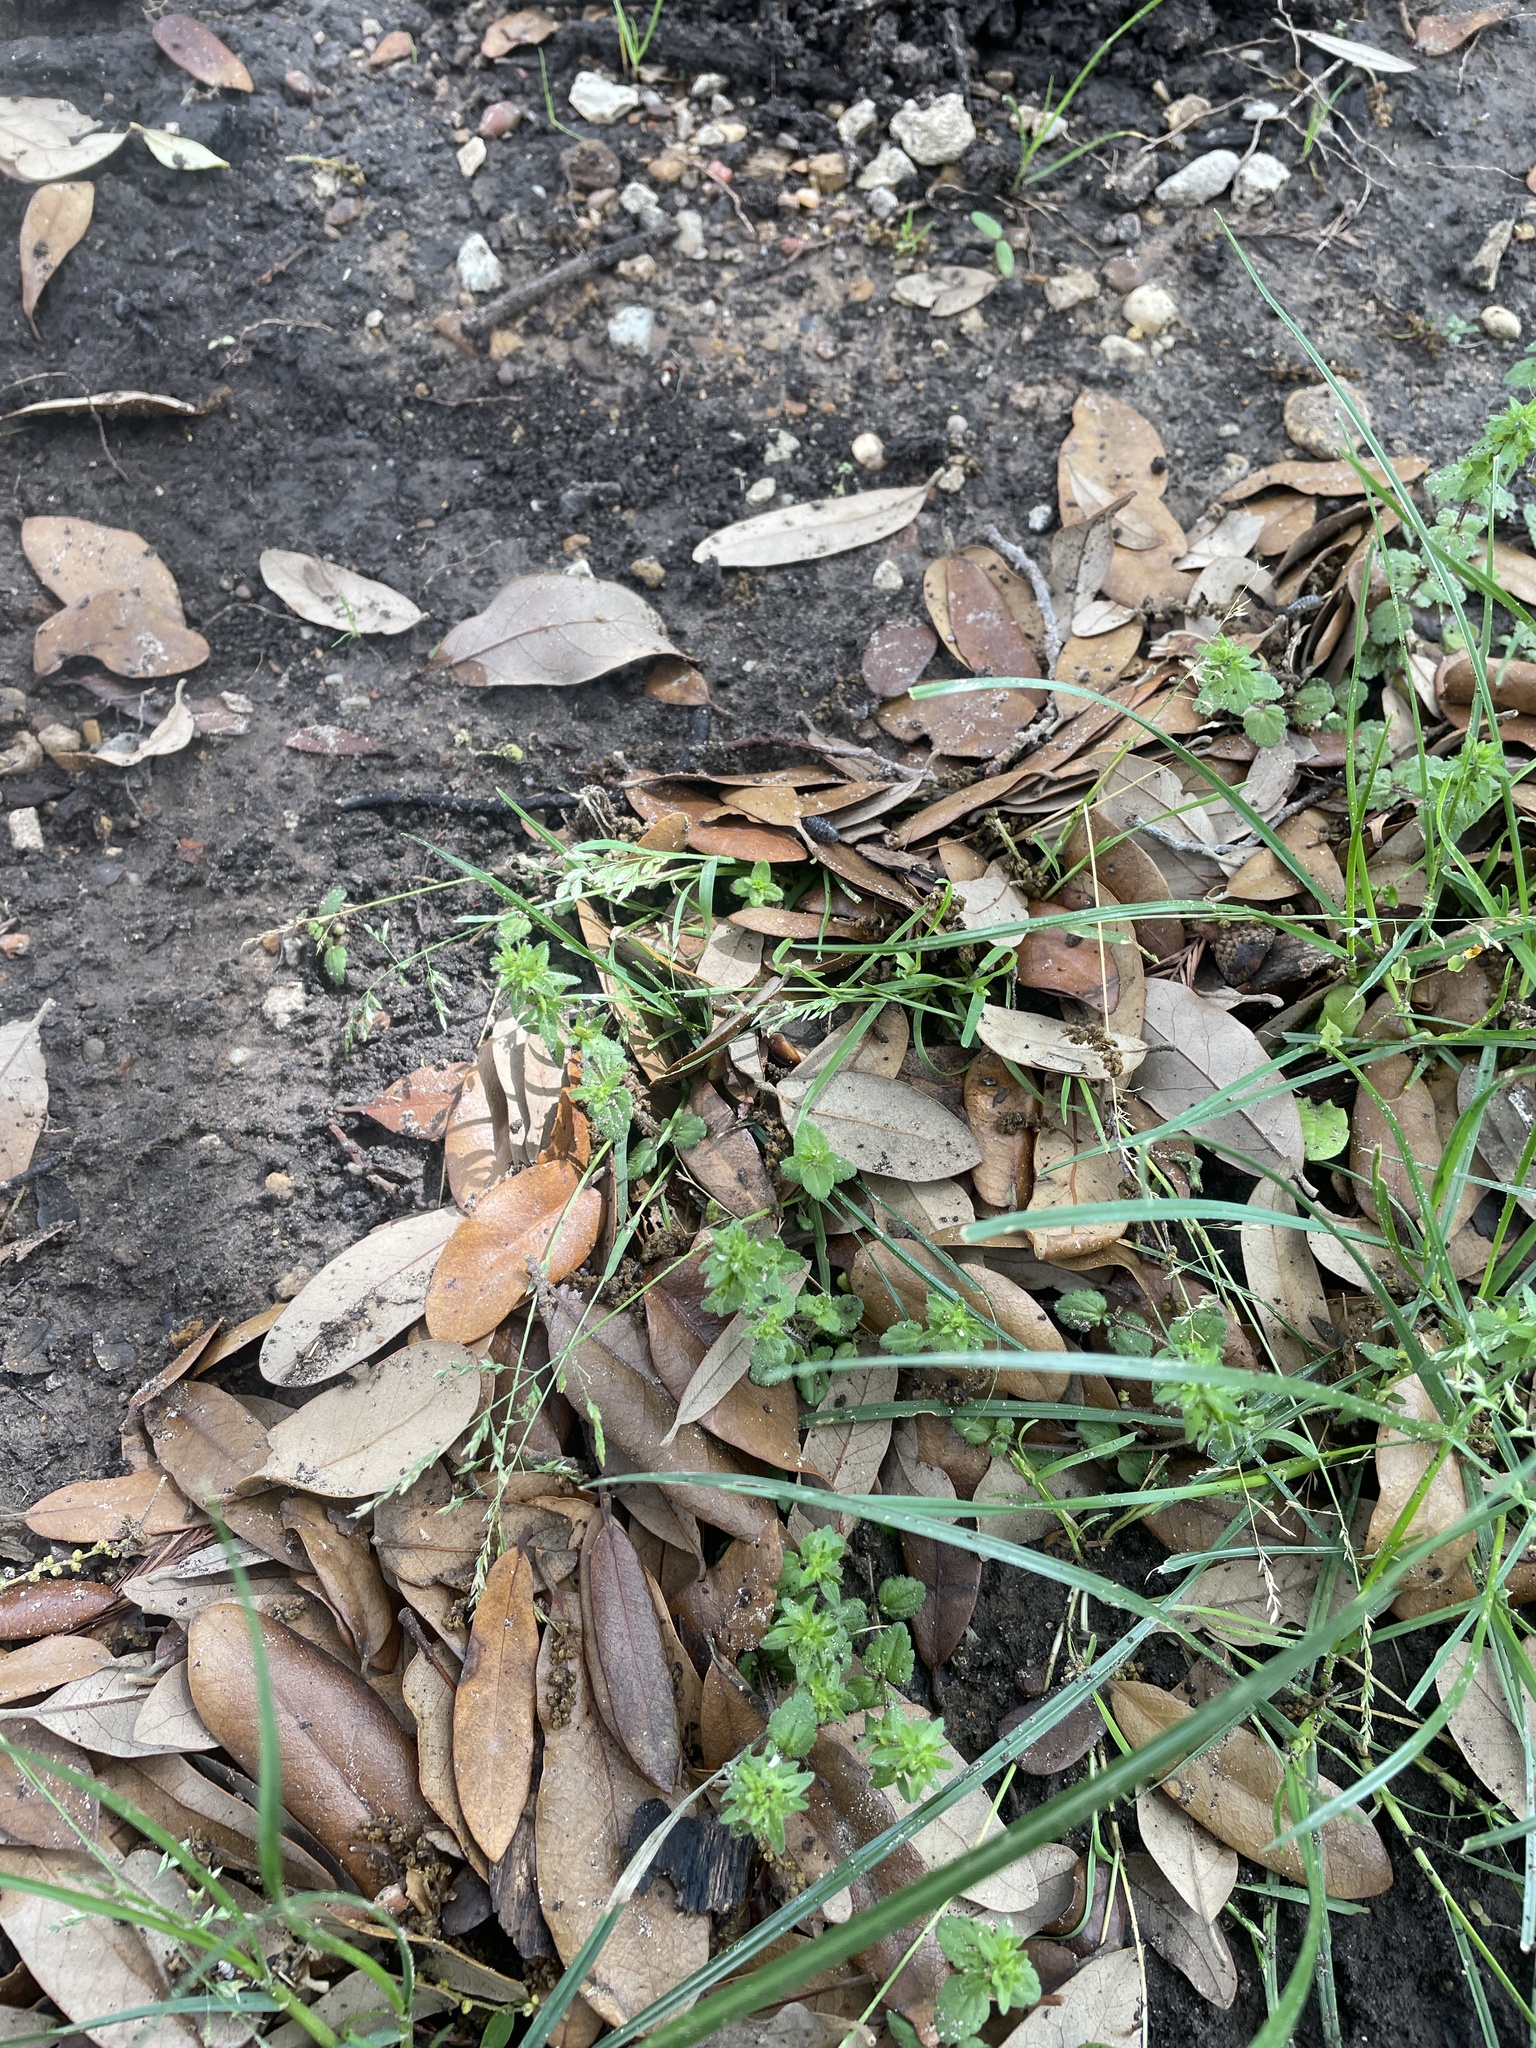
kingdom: Plantae
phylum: Tracheophyta
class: Liliopsida
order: Poales
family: Poaceae
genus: Poa
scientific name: Poa annua
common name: Annual bluegrass
